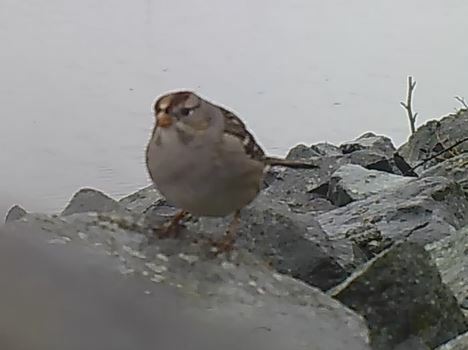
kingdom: Animalia
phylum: Chordata
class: Aves
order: Passeriformes
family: Passerellidae
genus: Zonotrichia
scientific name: Zonotrichia leucophrys
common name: White-crowned sparrow
